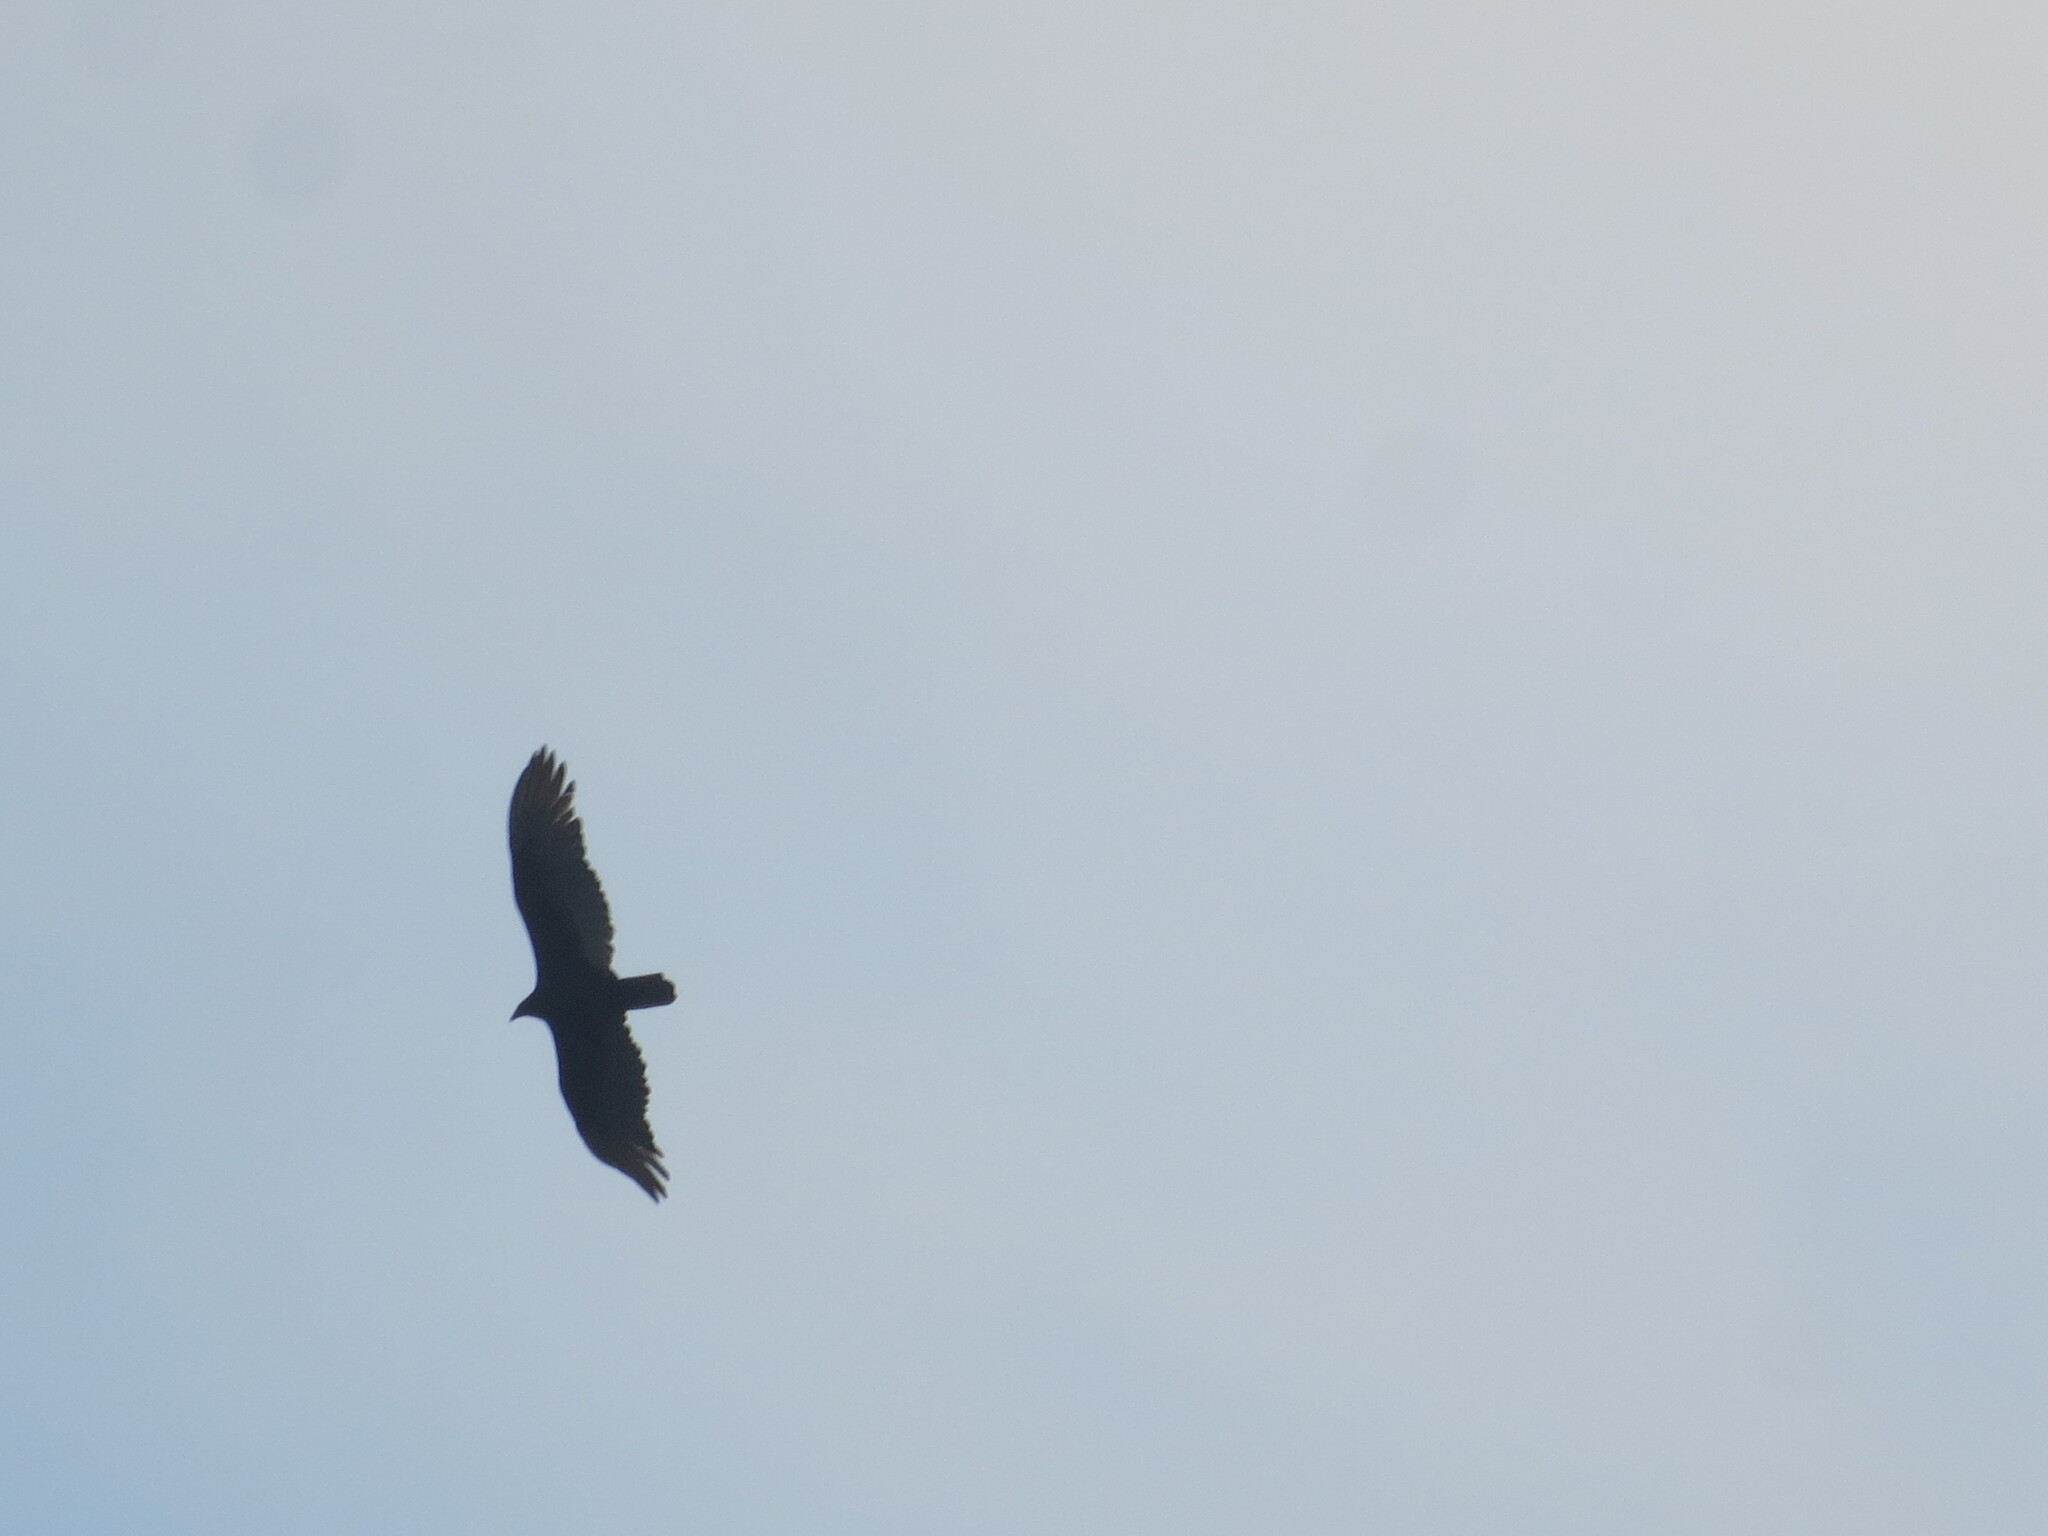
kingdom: Animalia
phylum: Chordata
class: Aves
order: Accipitriformes
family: Cathartidae
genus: Cathartes
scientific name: Cathartes aura
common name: Turkey vulture
